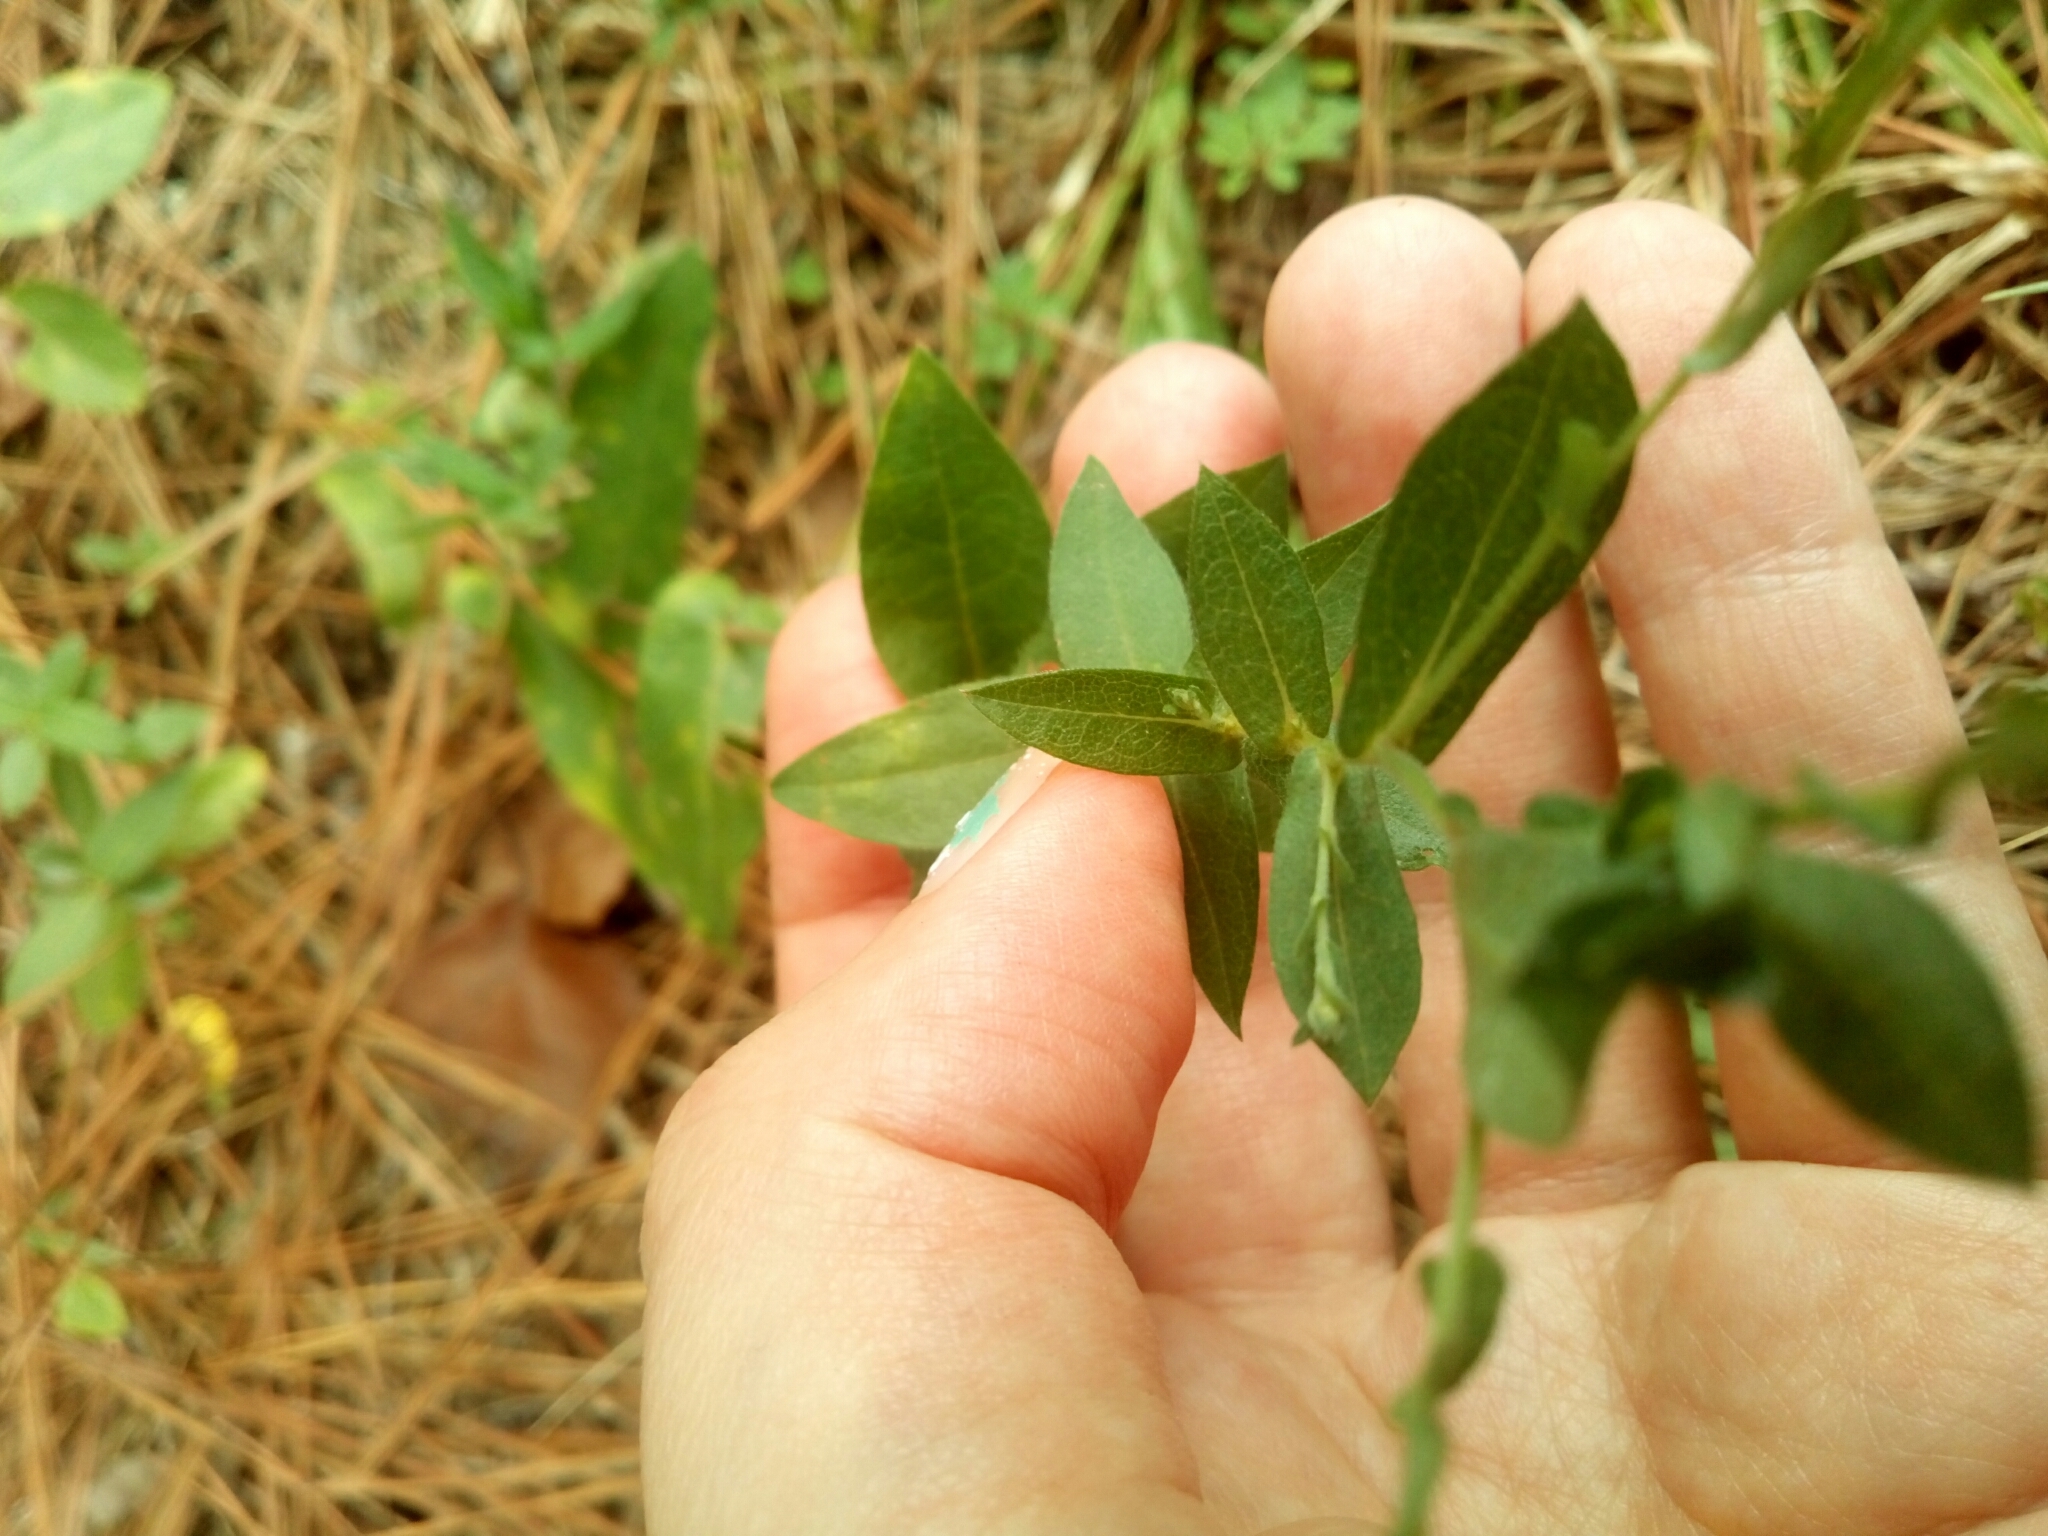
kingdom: Plantae
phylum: Tracheophyta
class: Magnoliopsida
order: Asterales
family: Asteraceae
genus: Symphyotrichum
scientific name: Symphyotrichum patens
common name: Late purple aster
